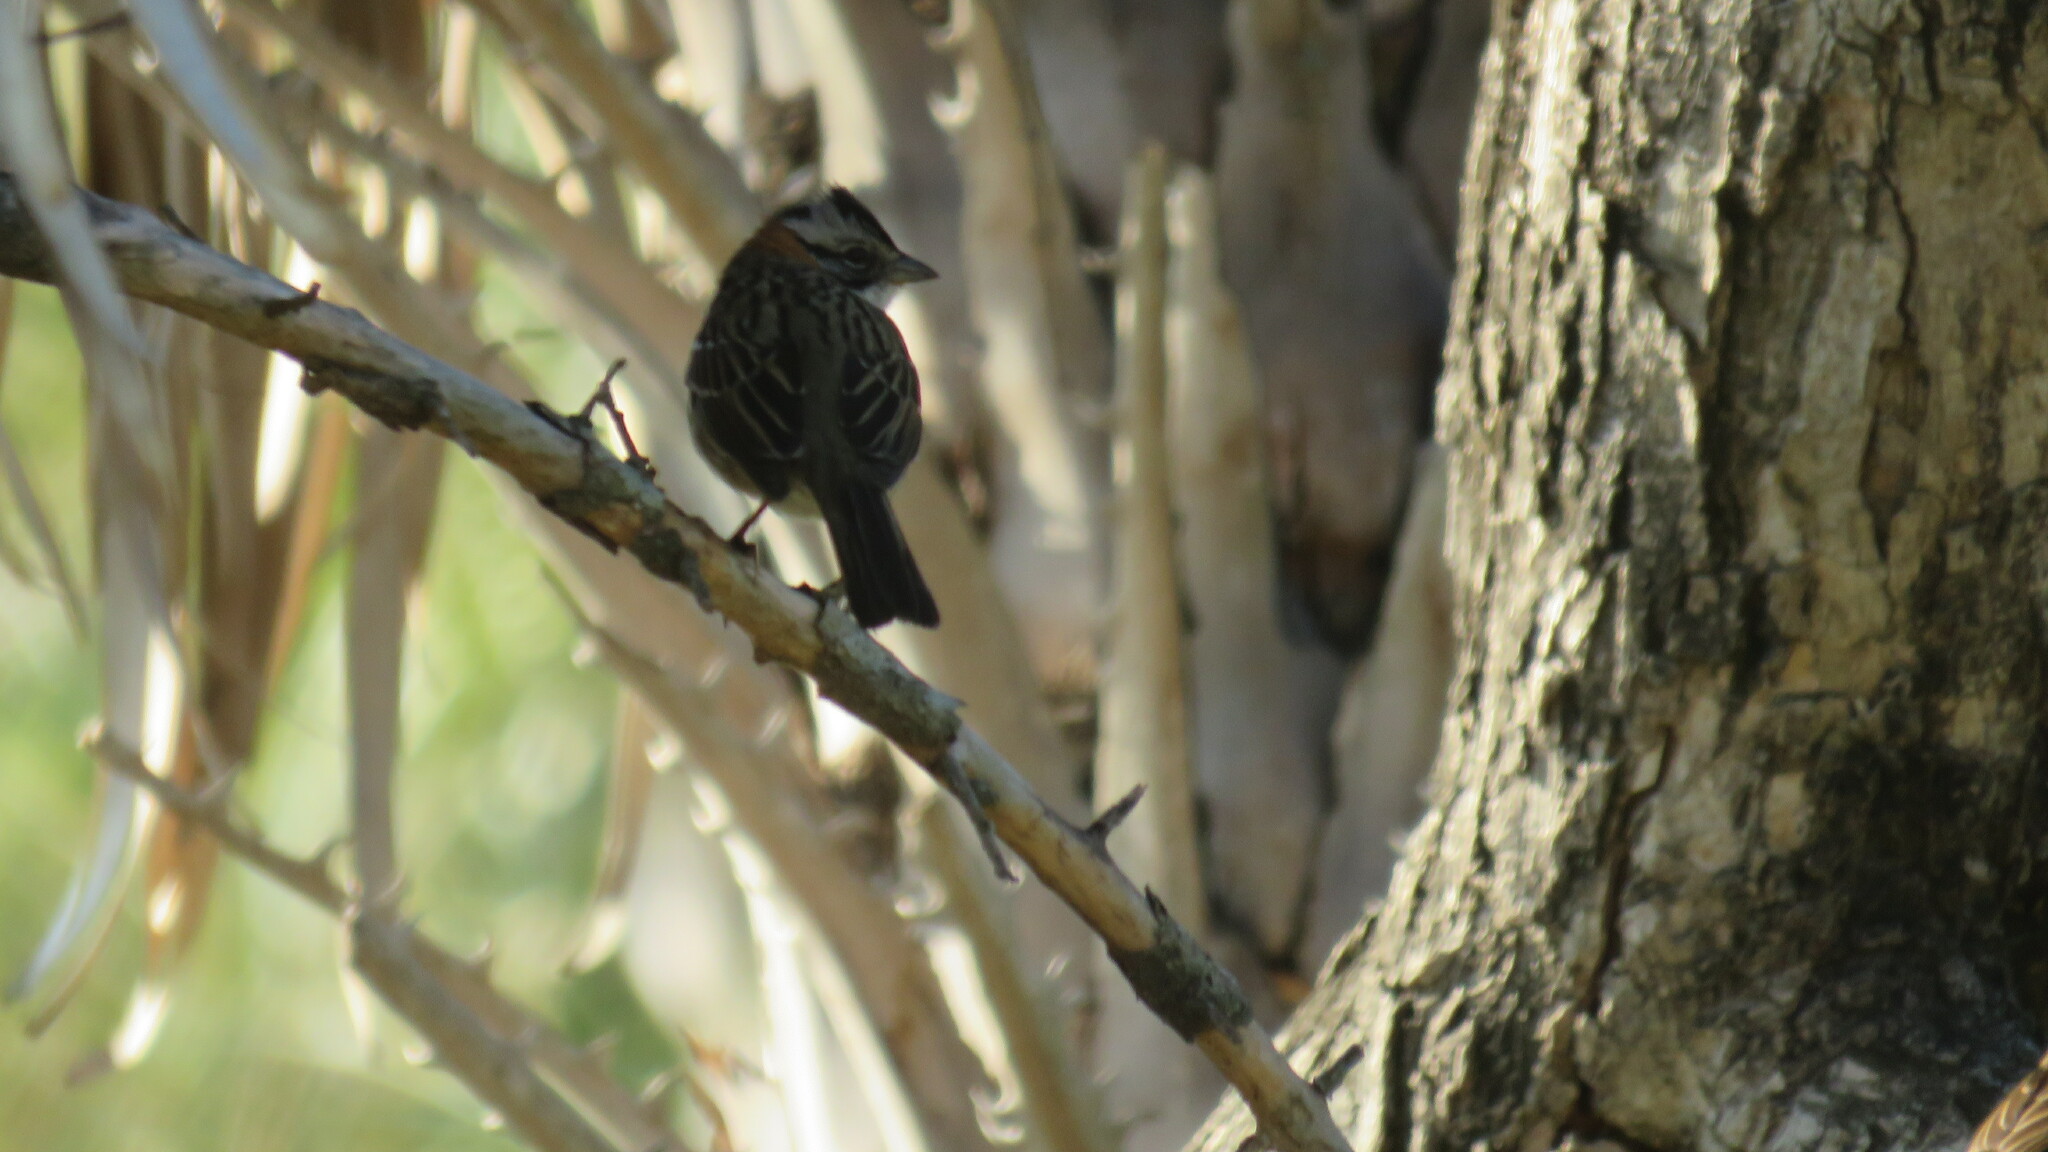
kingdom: Animalia
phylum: Chordata
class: Aves
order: Passeriformes
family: Passerellidae
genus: Zonotrichia
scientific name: Zonotrichia capensis
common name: Rufous-collared sparrow
